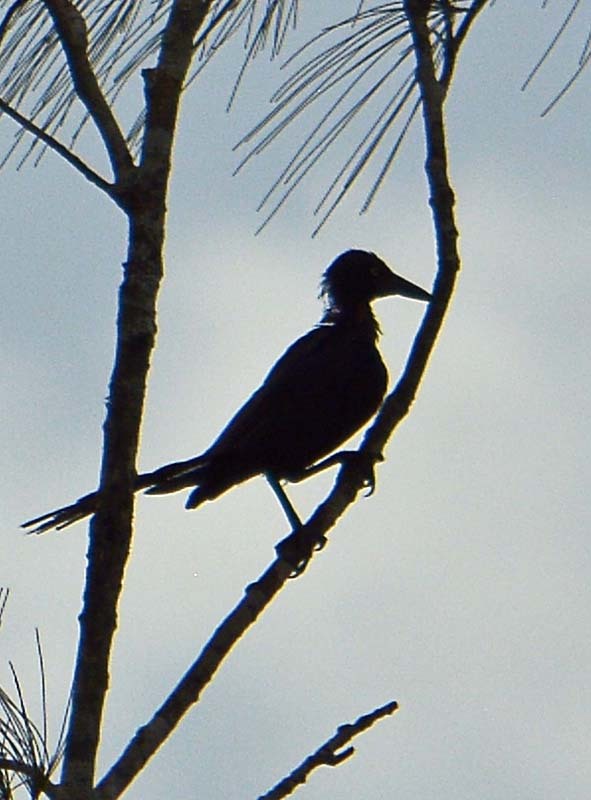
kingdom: Animalia
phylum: Chordata
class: Aves
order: Passeriformes
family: Icteridae
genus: Quiscalus
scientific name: Quiscalus mexicanus
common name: Great-tailed grackle
